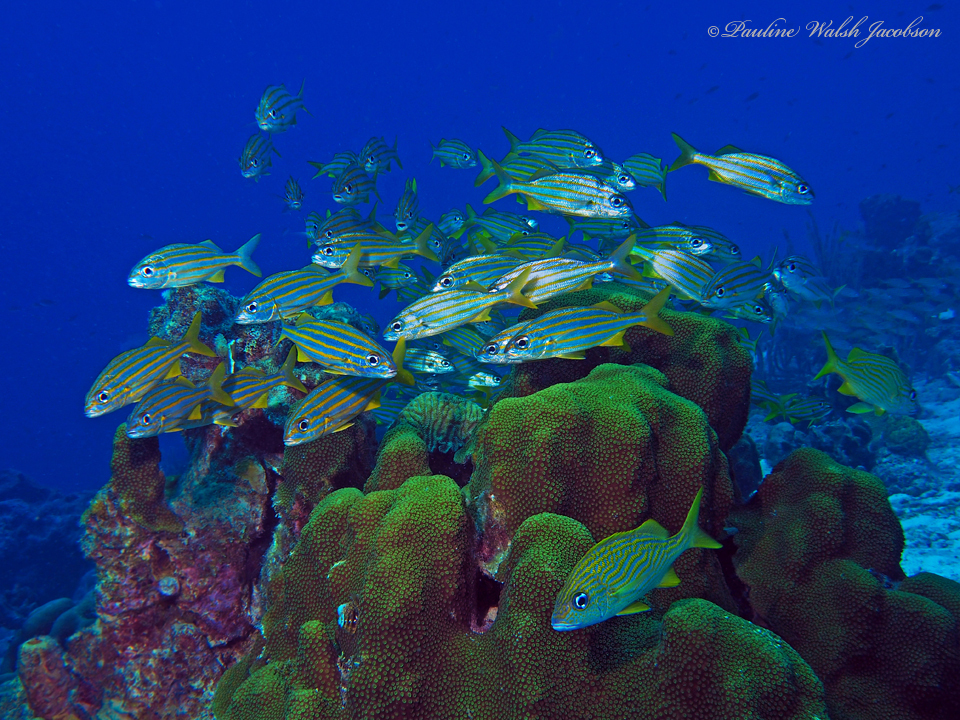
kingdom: Animalia
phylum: Chordata
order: Perciformes
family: Haemulidae
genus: Haemulon
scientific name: Haemulon chrysargyreum
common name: Smallmouth grunt
